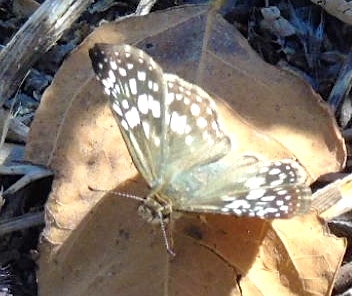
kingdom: Animalia
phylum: Arthropoda
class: Insecta
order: Lepidoptera
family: Hesperiidae
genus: Burnsius
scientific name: Burnsius
